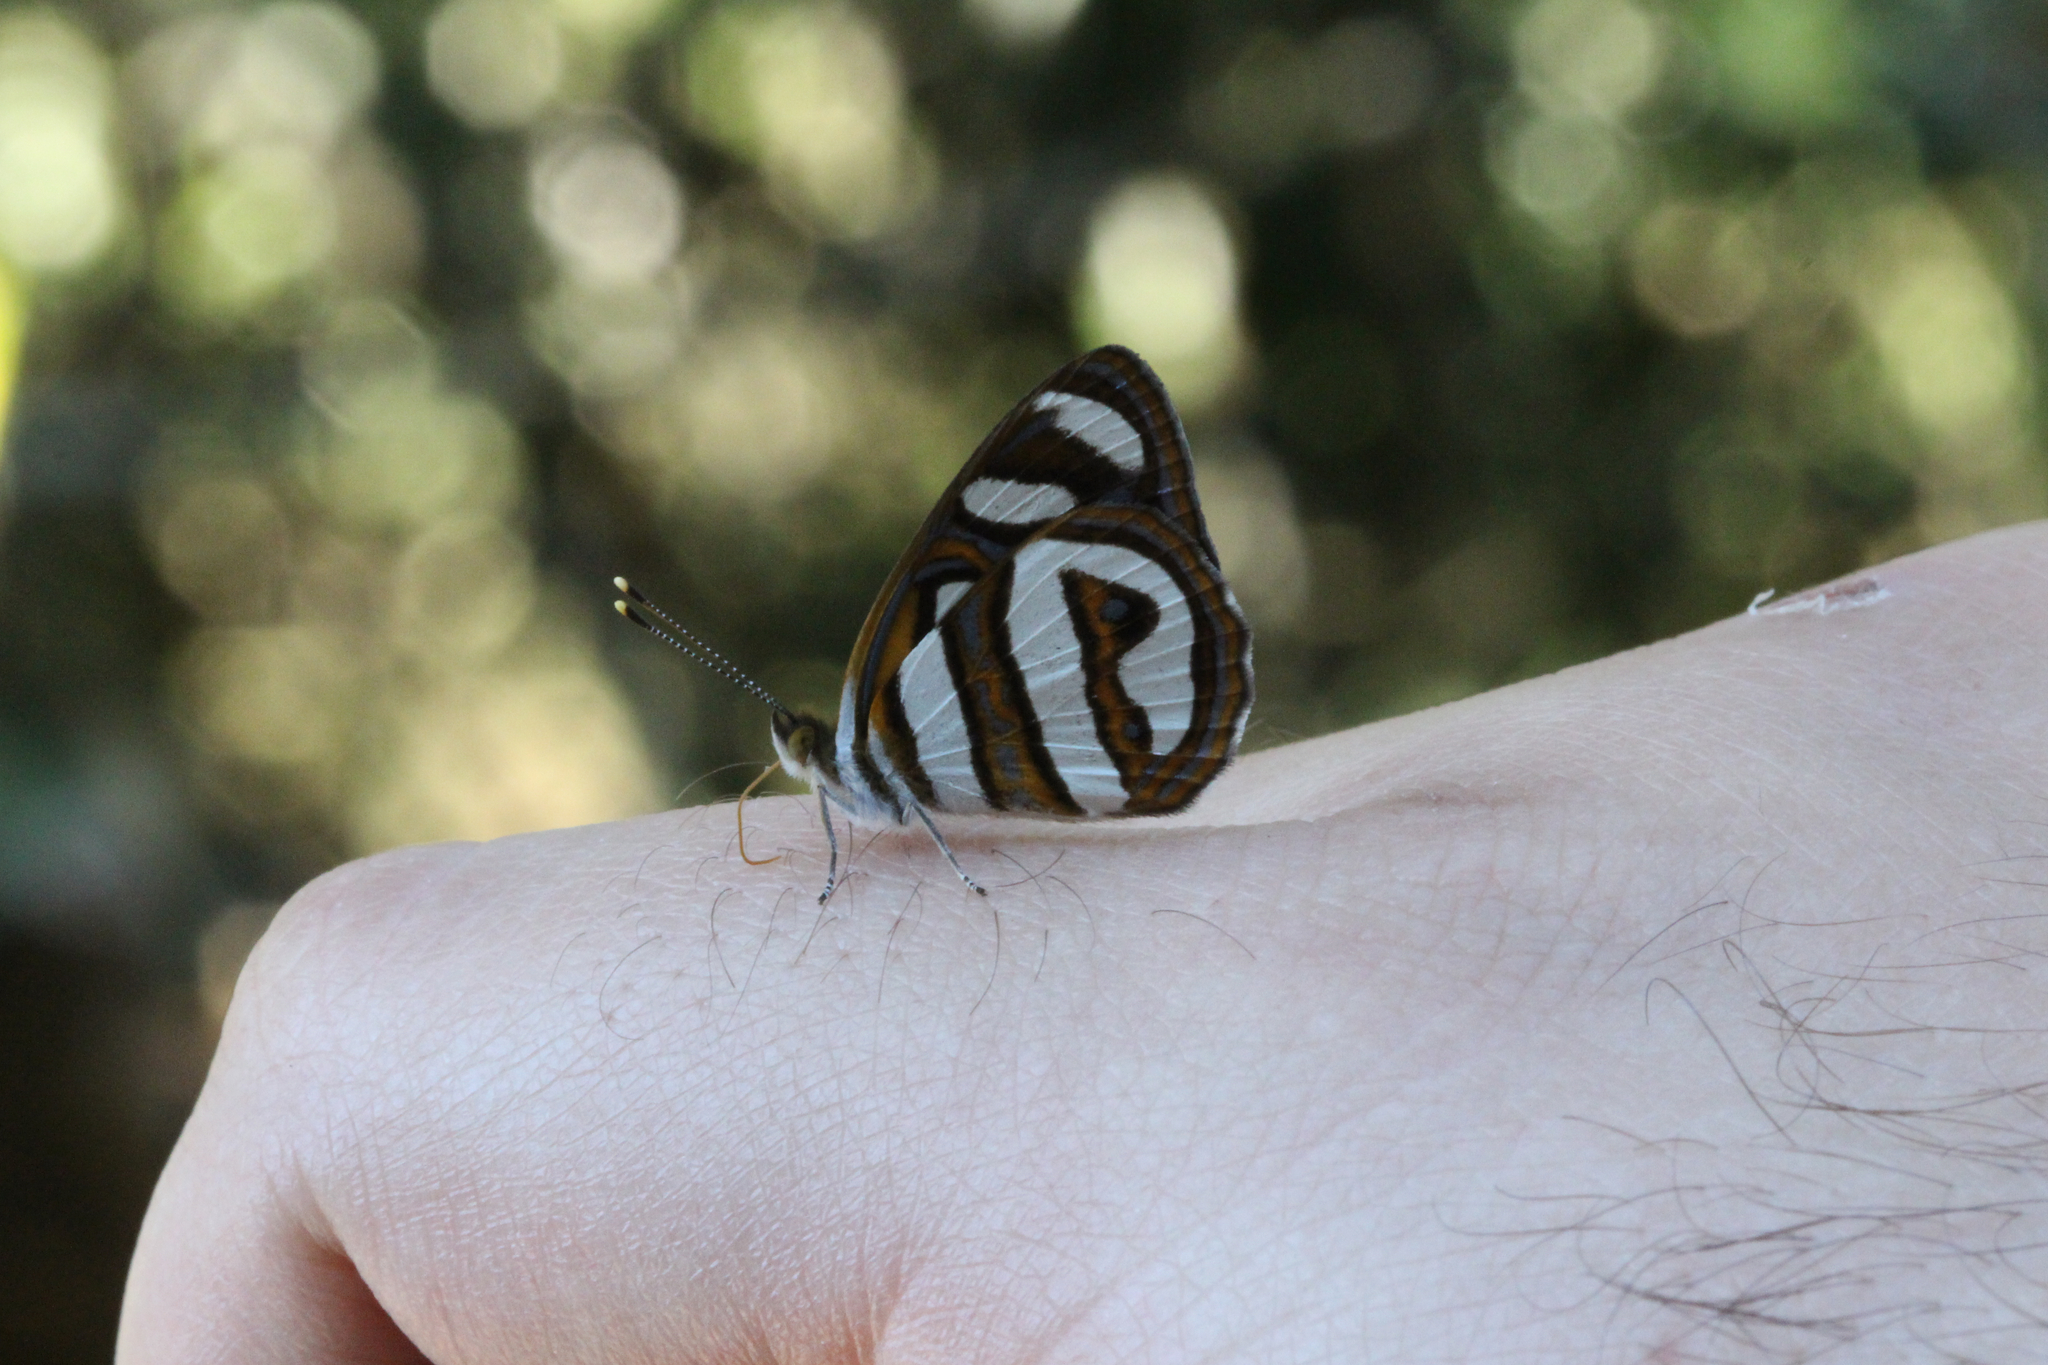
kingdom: Animalia
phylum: Arthropoda
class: Insecta
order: Lepidoptera
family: Nymphalidae
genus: Dynamine
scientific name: Dynamine artemisia
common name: Small-eyed sailor
